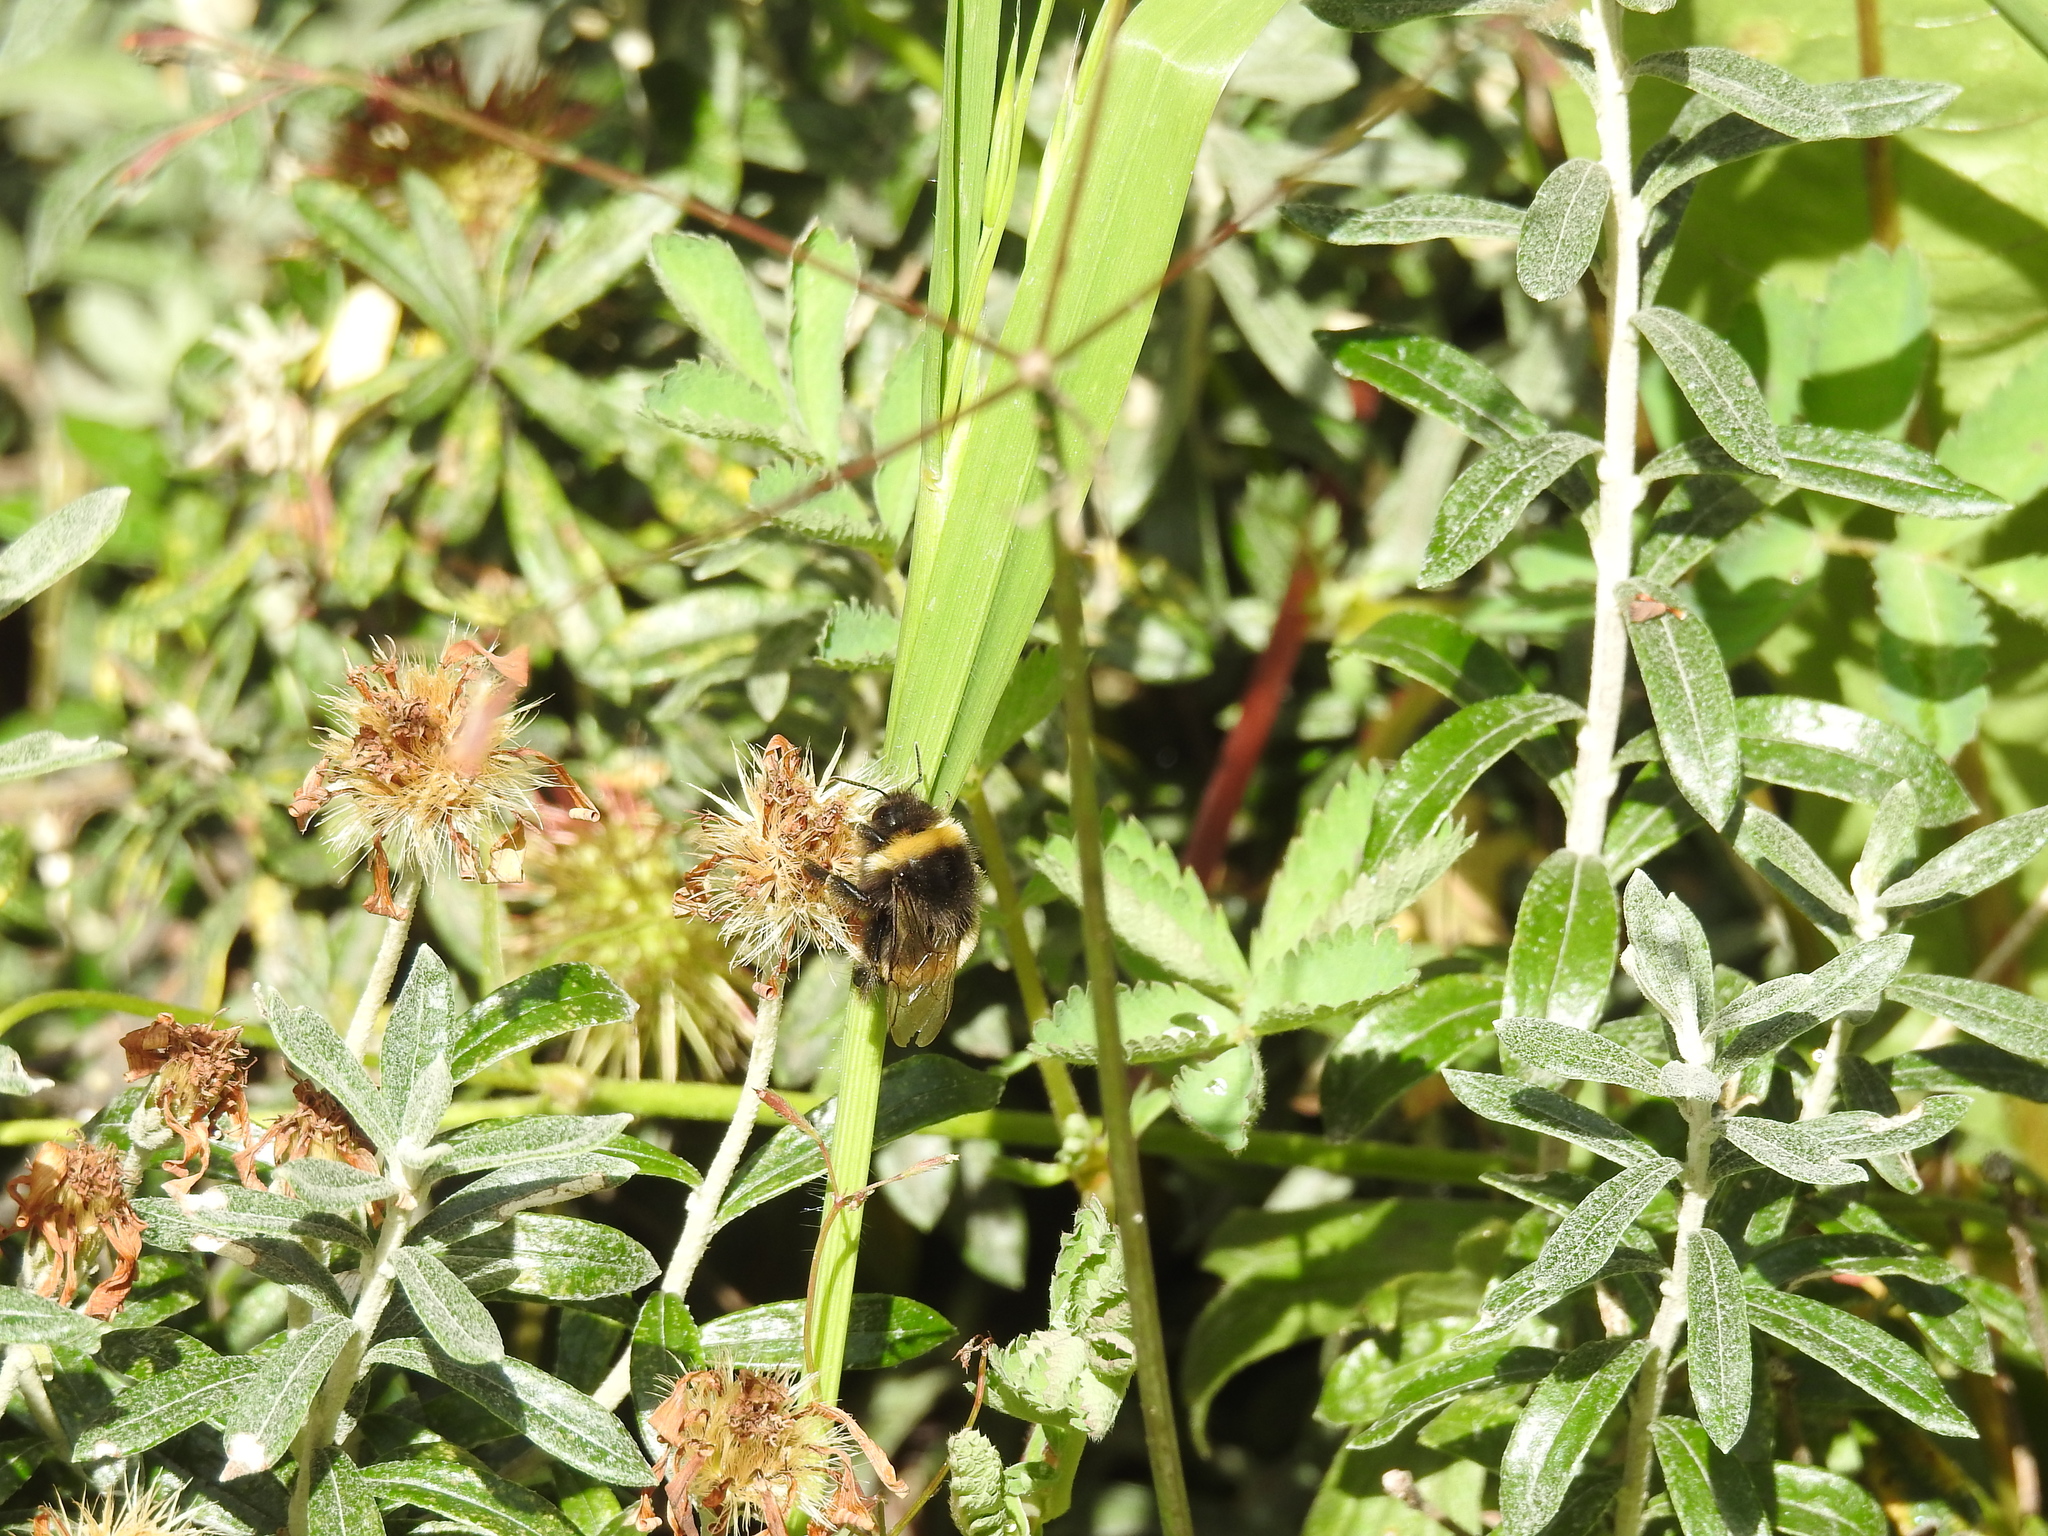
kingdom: Animalia
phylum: Arthropoda
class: Insecta
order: Hymenoptera
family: Apidae
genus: Bombus
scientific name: Bombus terrestris
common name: Buff-tailed bumblebee
